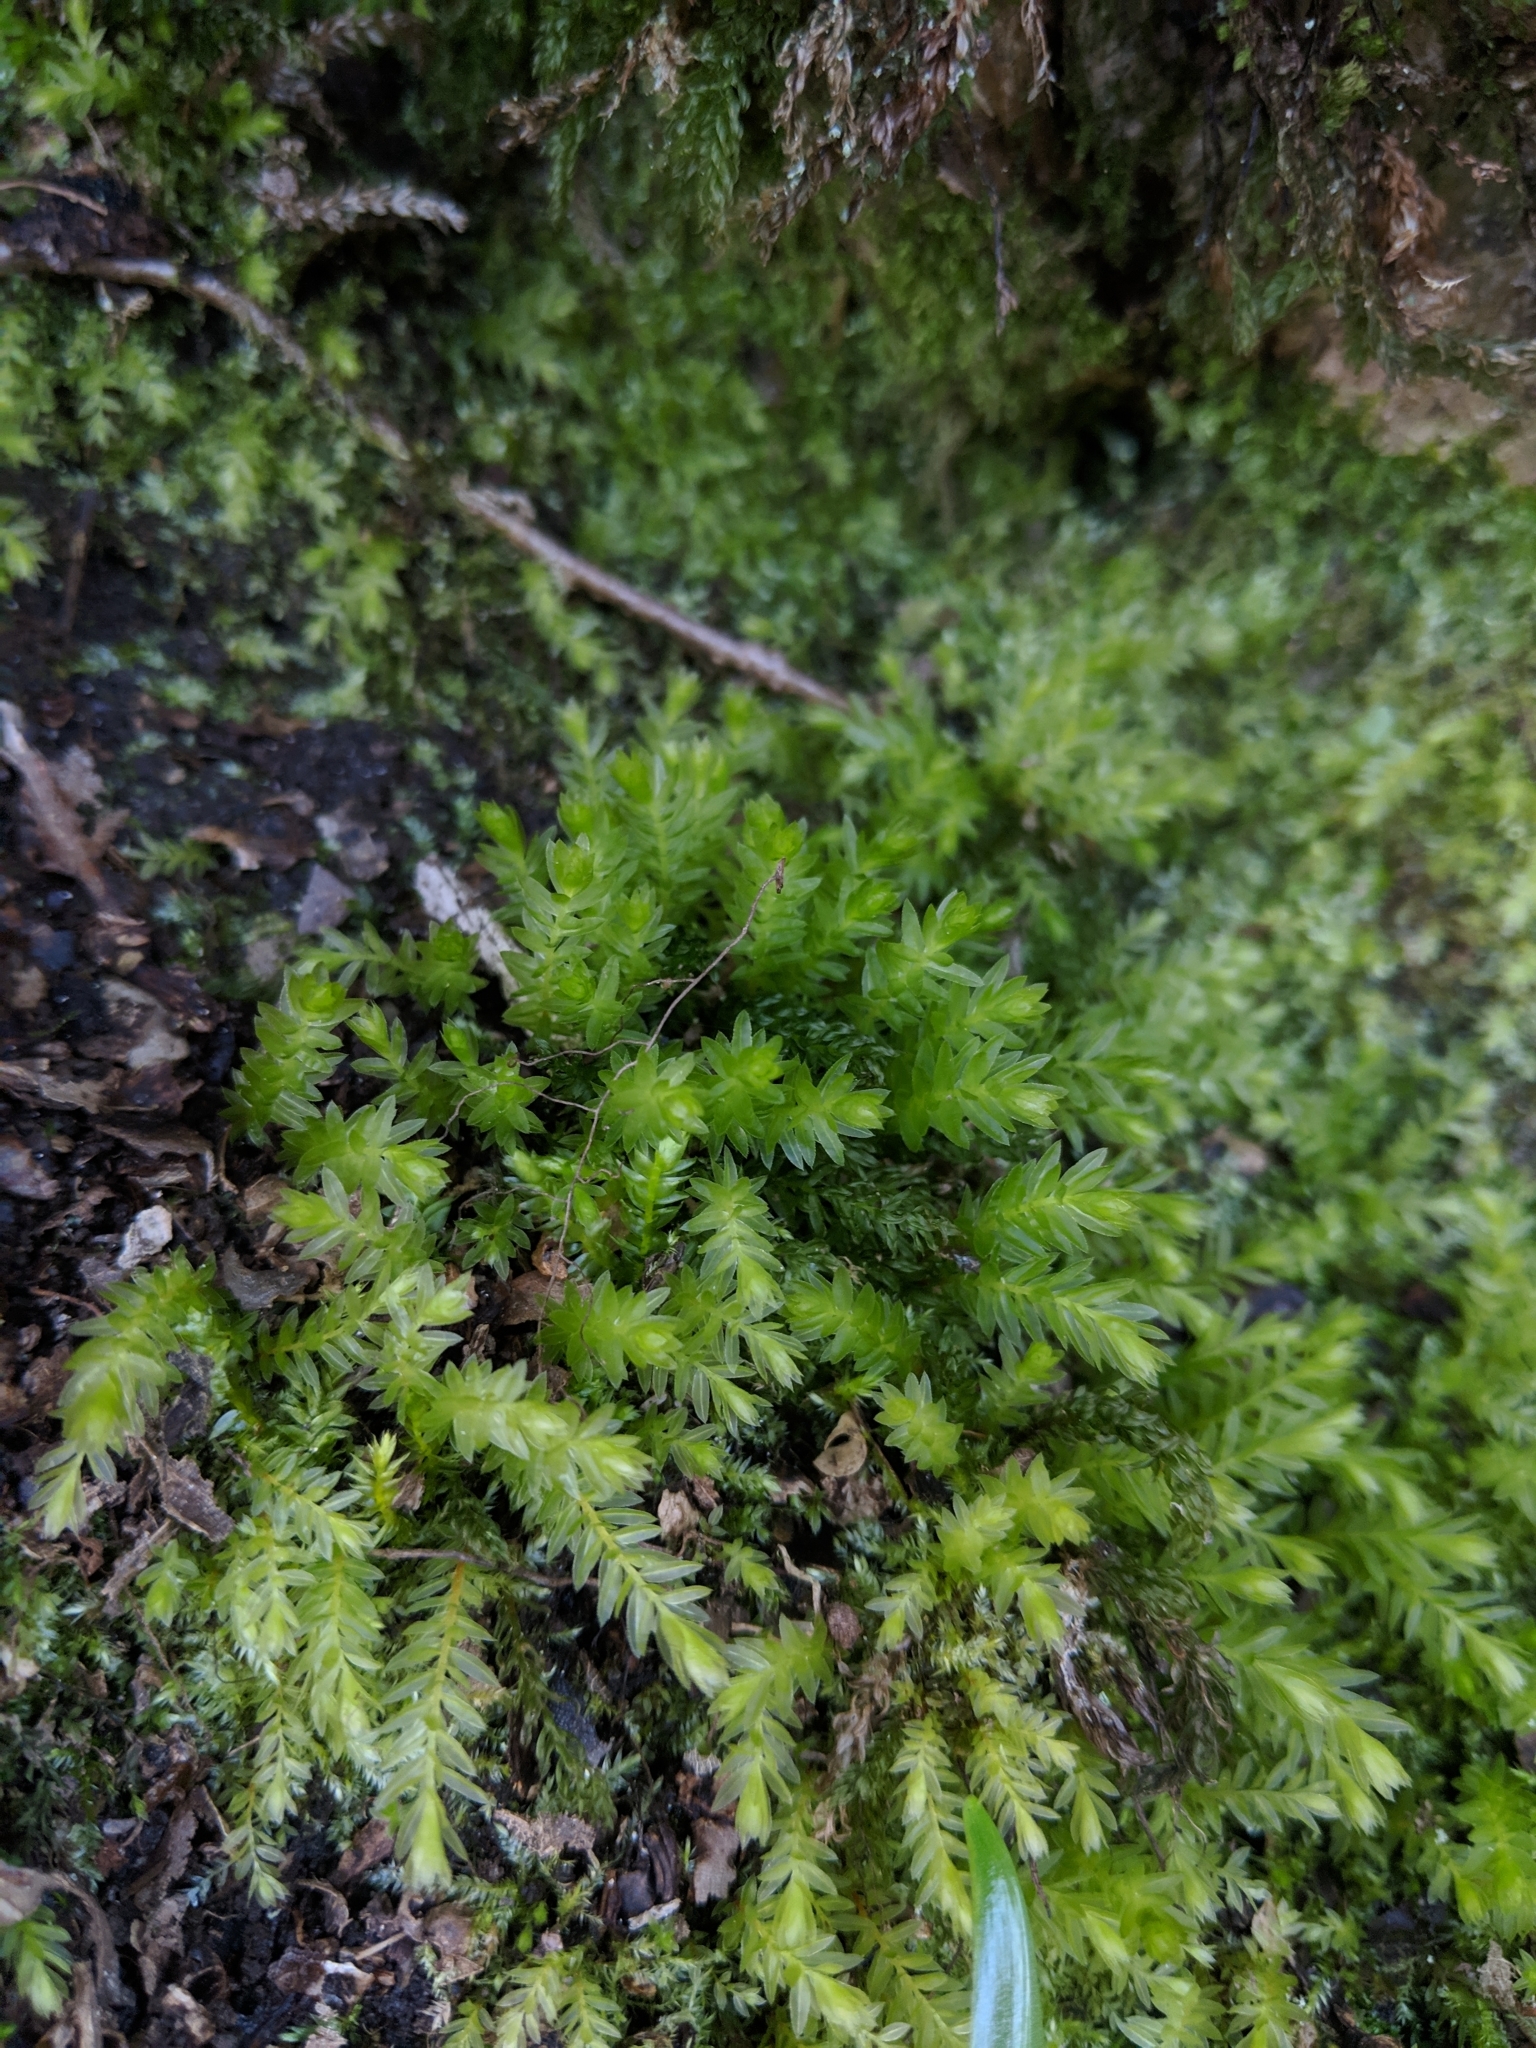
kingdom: Plantae
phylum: Bryophyta
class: Bryopsida
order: Bryales
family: Mniaceae
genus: Mnium
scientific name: Mnium hornum
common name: Swan's-neck leafy moss
